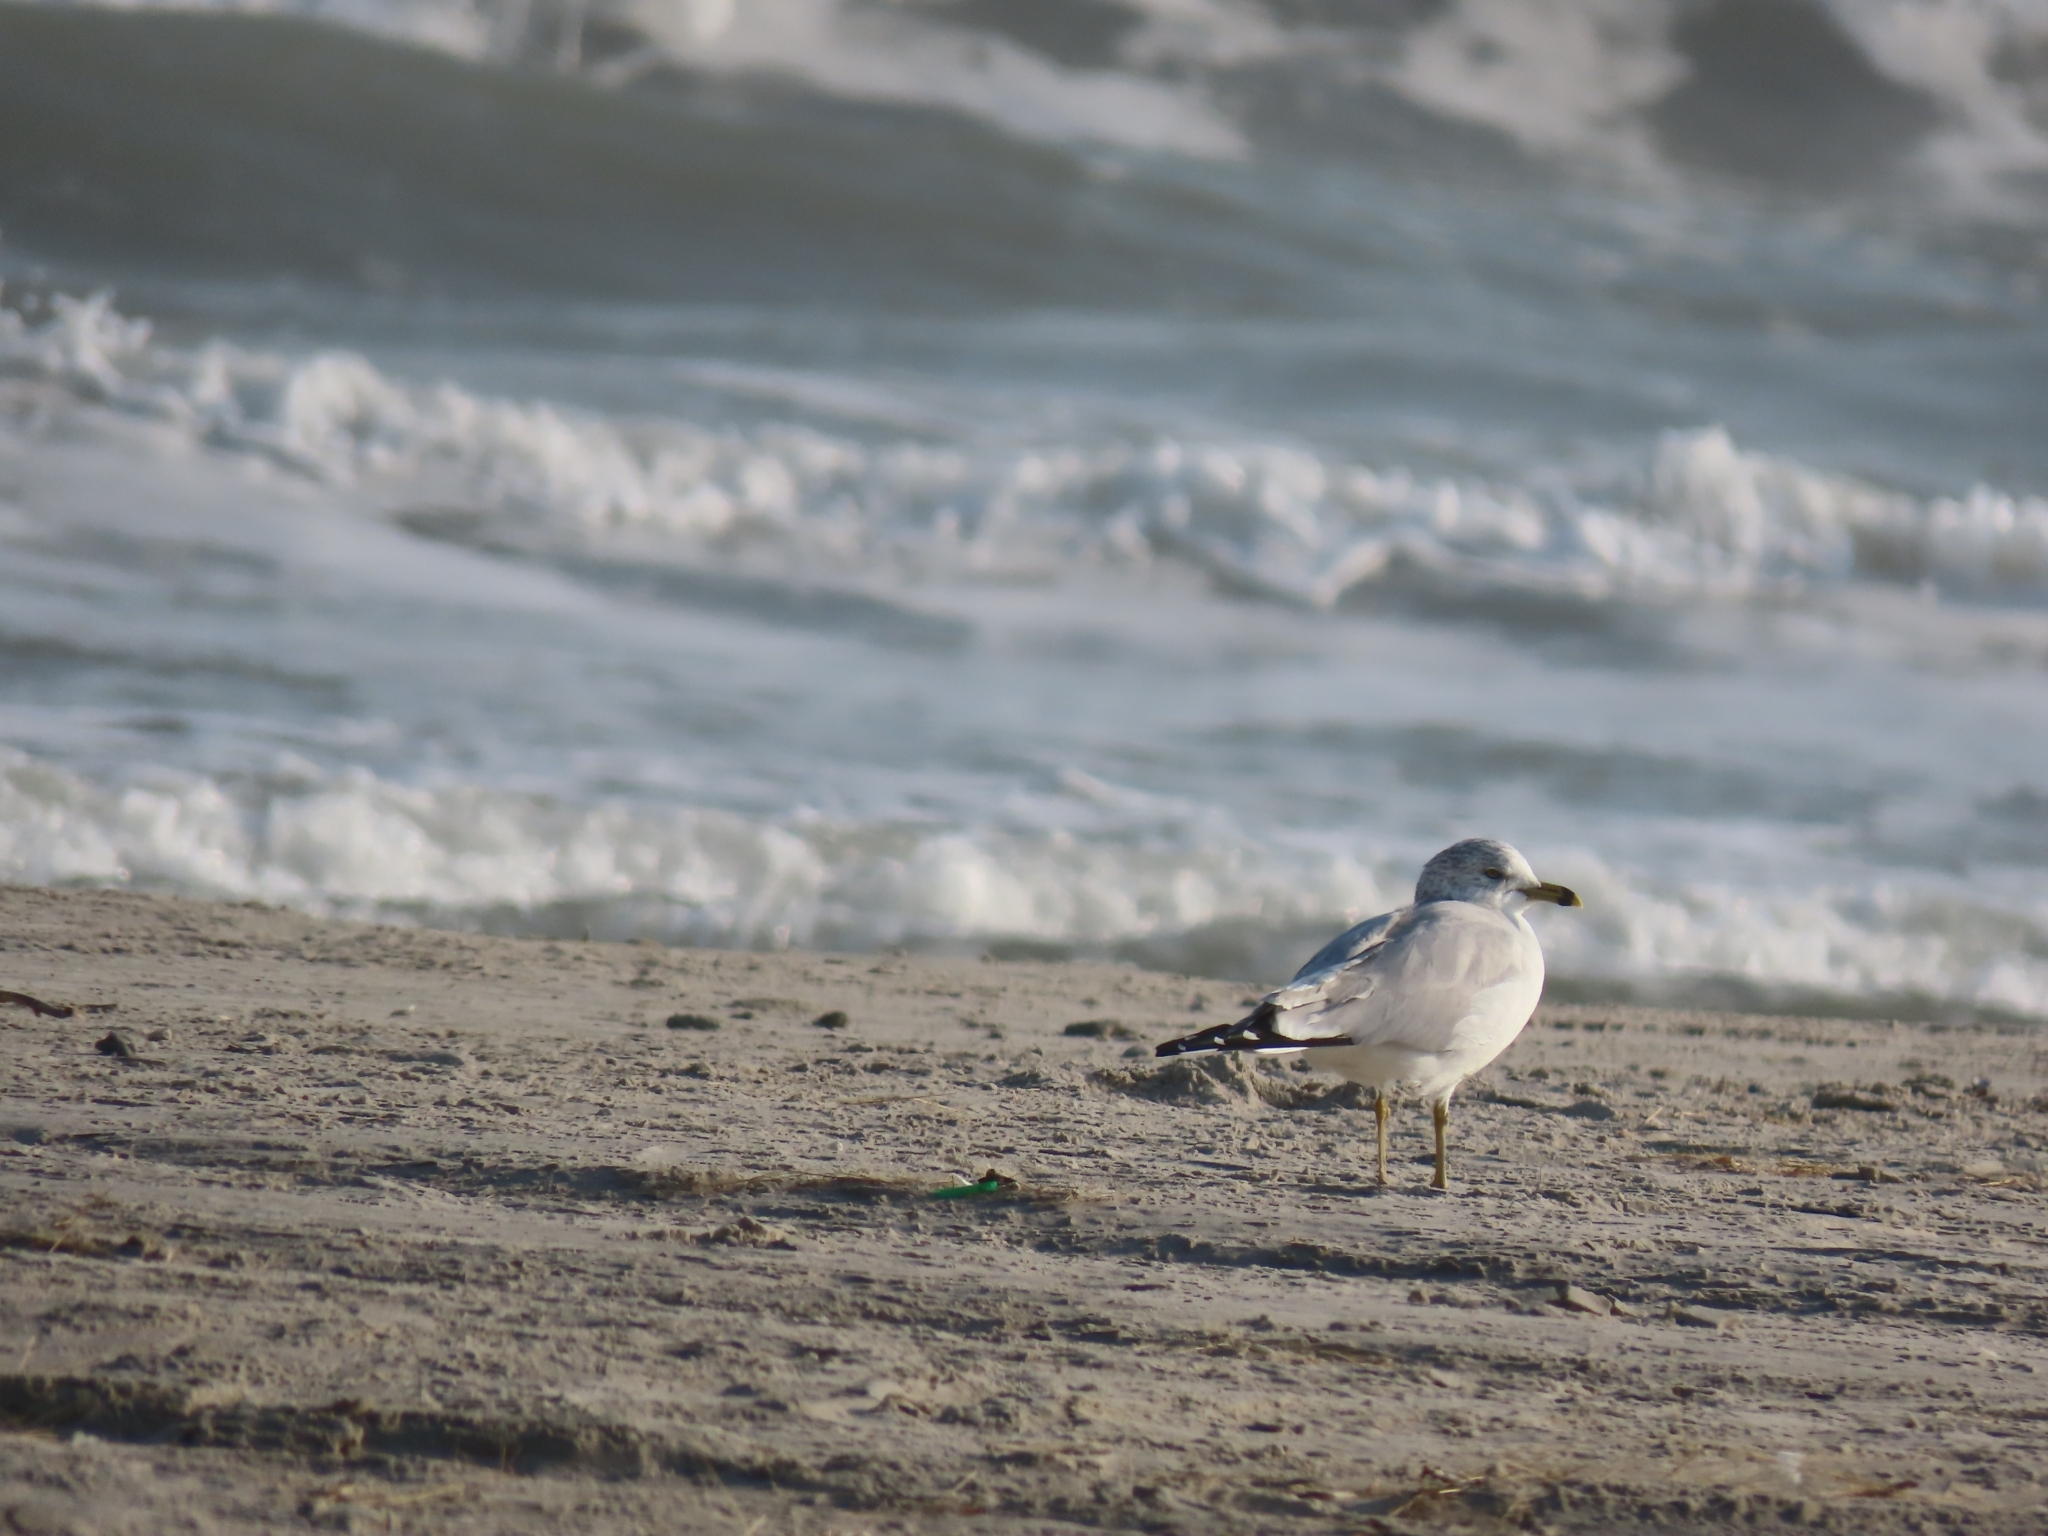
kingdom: Animalia
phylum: Chordata
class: Aves
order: Charadriiformes
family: Laridae
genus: Larus
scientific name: Larus delawarensis
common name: Ring-billed gull
